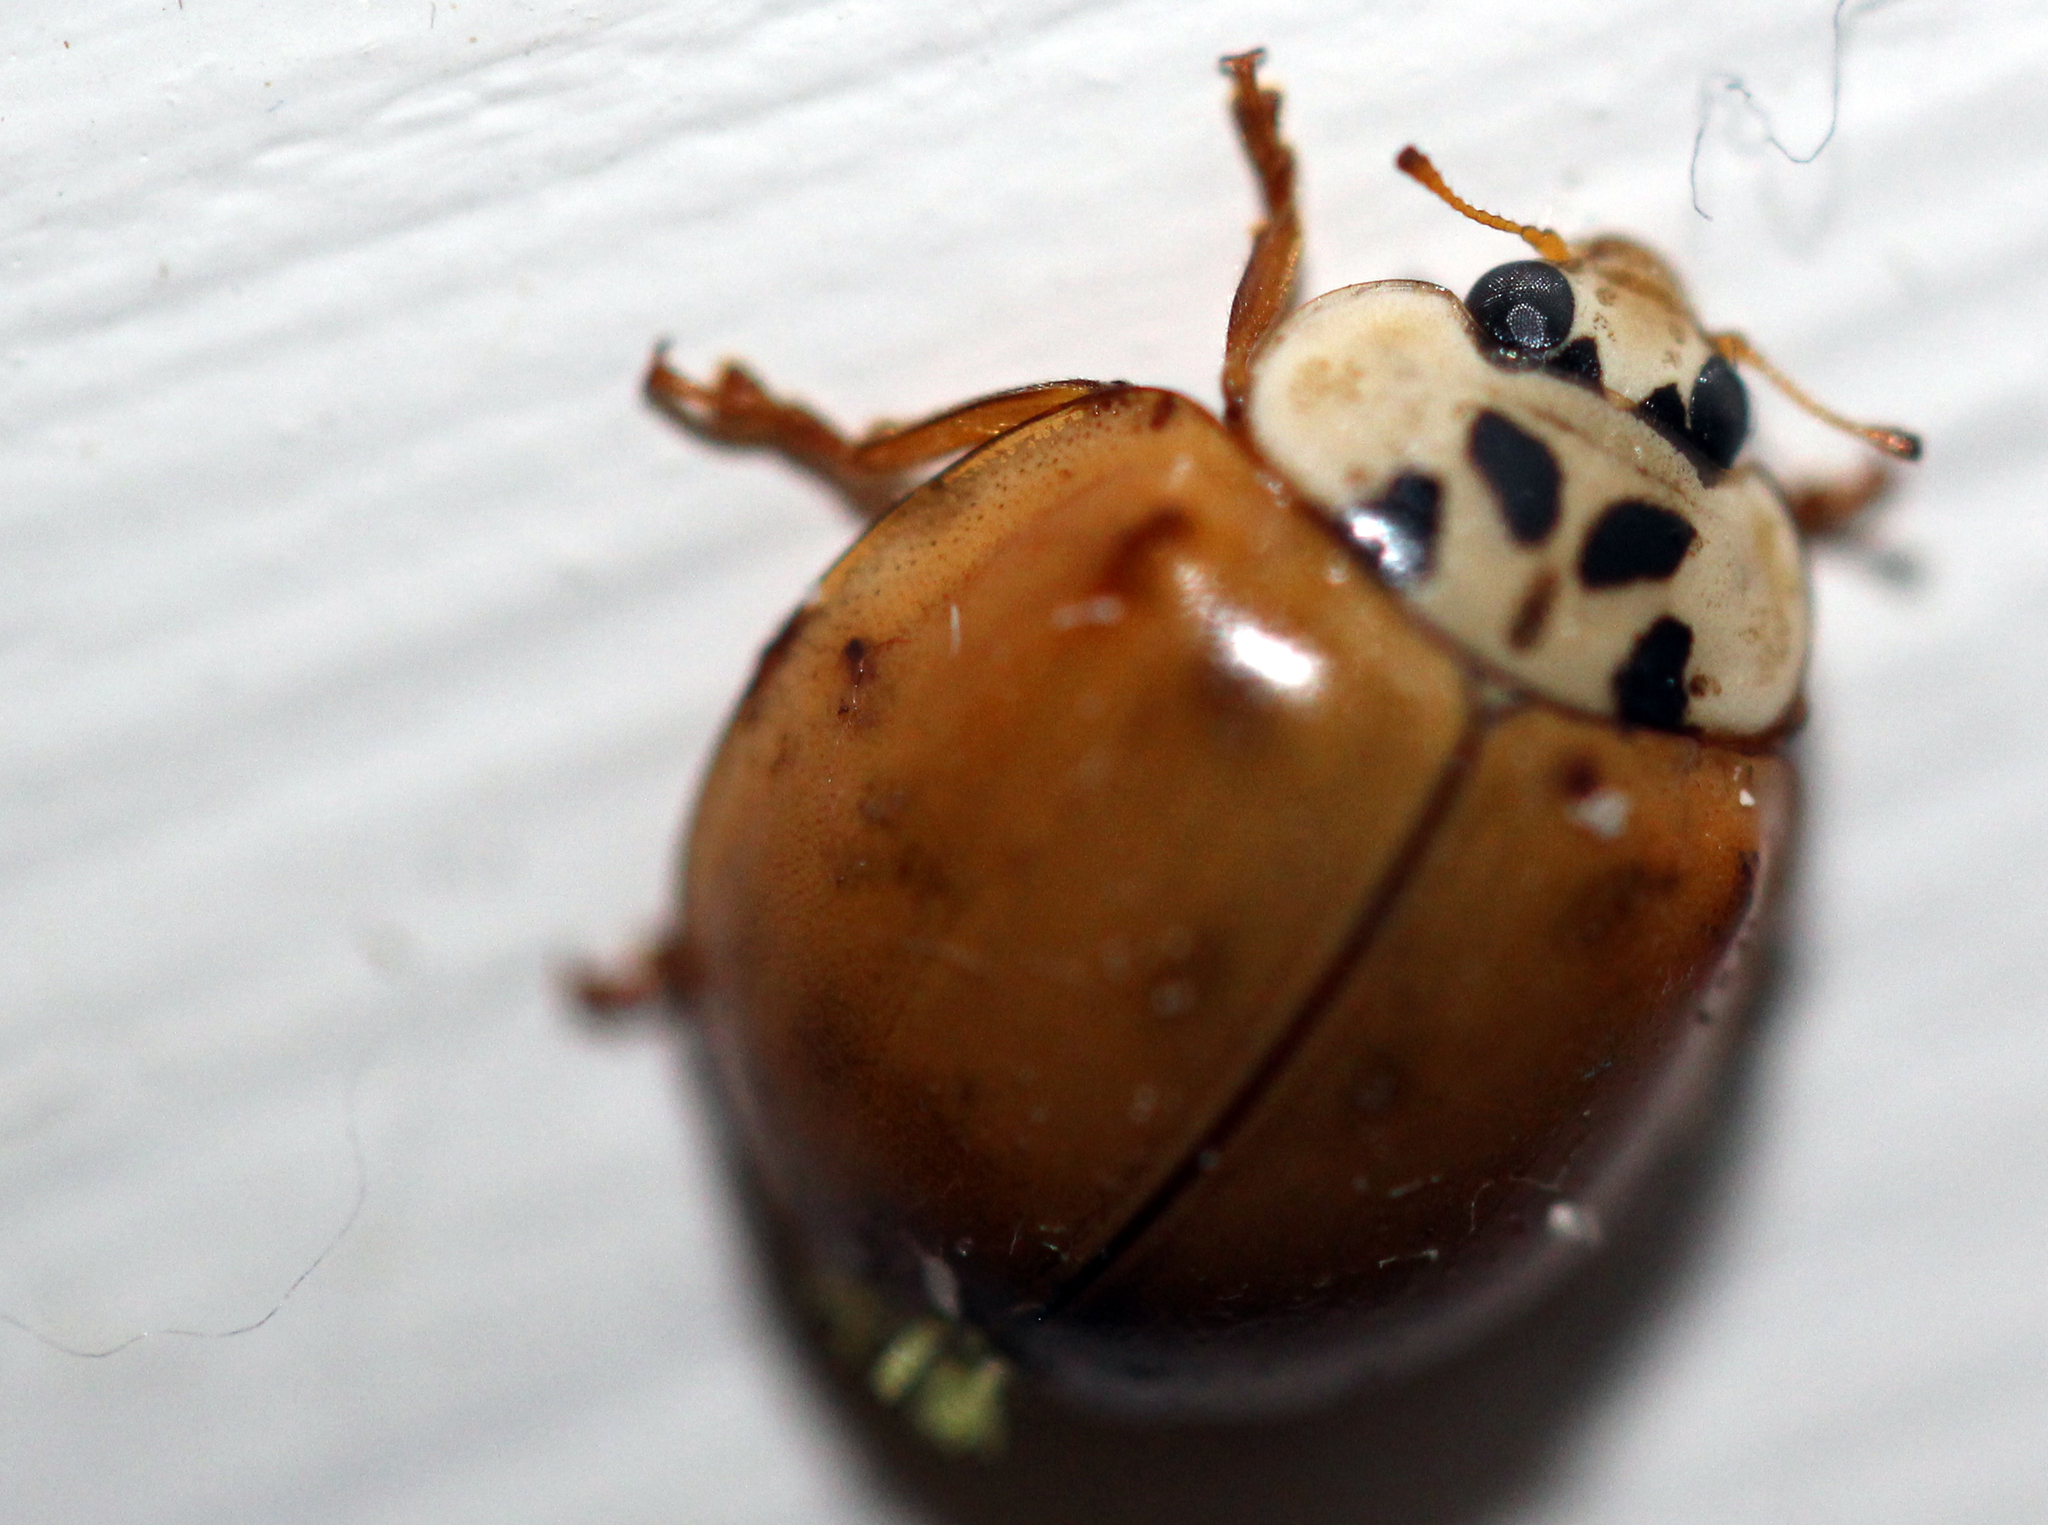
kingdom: Animalia
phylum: Arthropoda
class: Insecta
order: Coleoptera
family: Coccinellidae
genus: Harmonia
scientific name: Harmonia axyridis
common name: Harlequin ladybird
